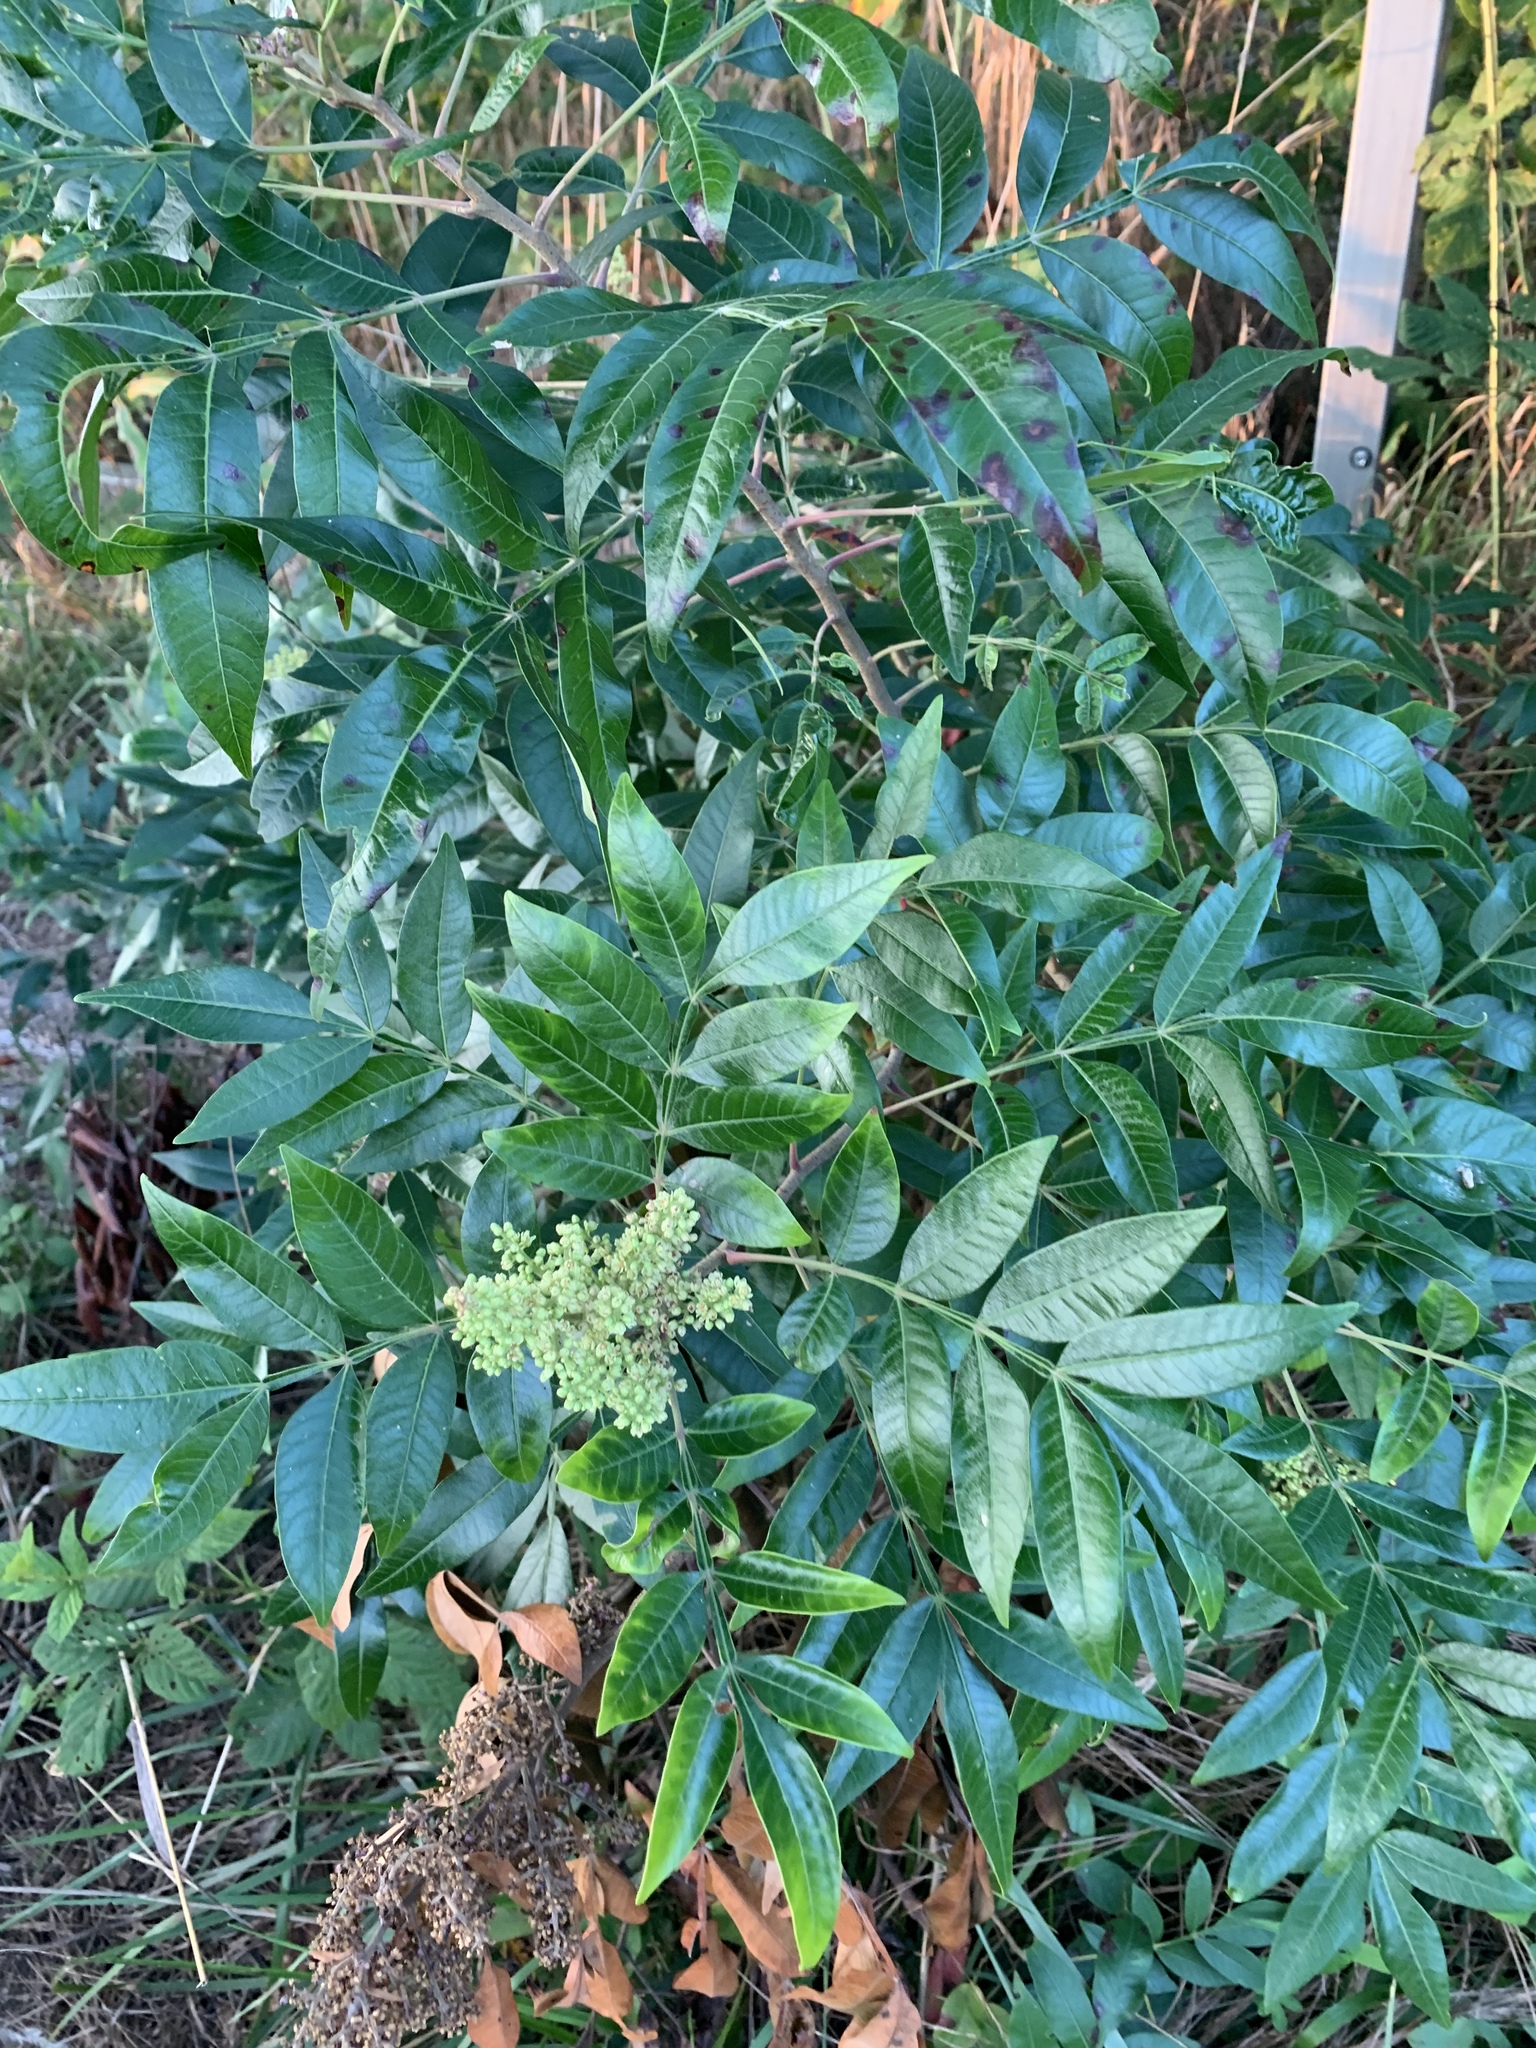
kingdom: Plantae
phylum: Tracheophyta
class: Magnoliopsida
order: Sapindales
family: Anacardiaceae
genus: Rhus
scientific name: Rhus copallina
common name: Shining sumac
